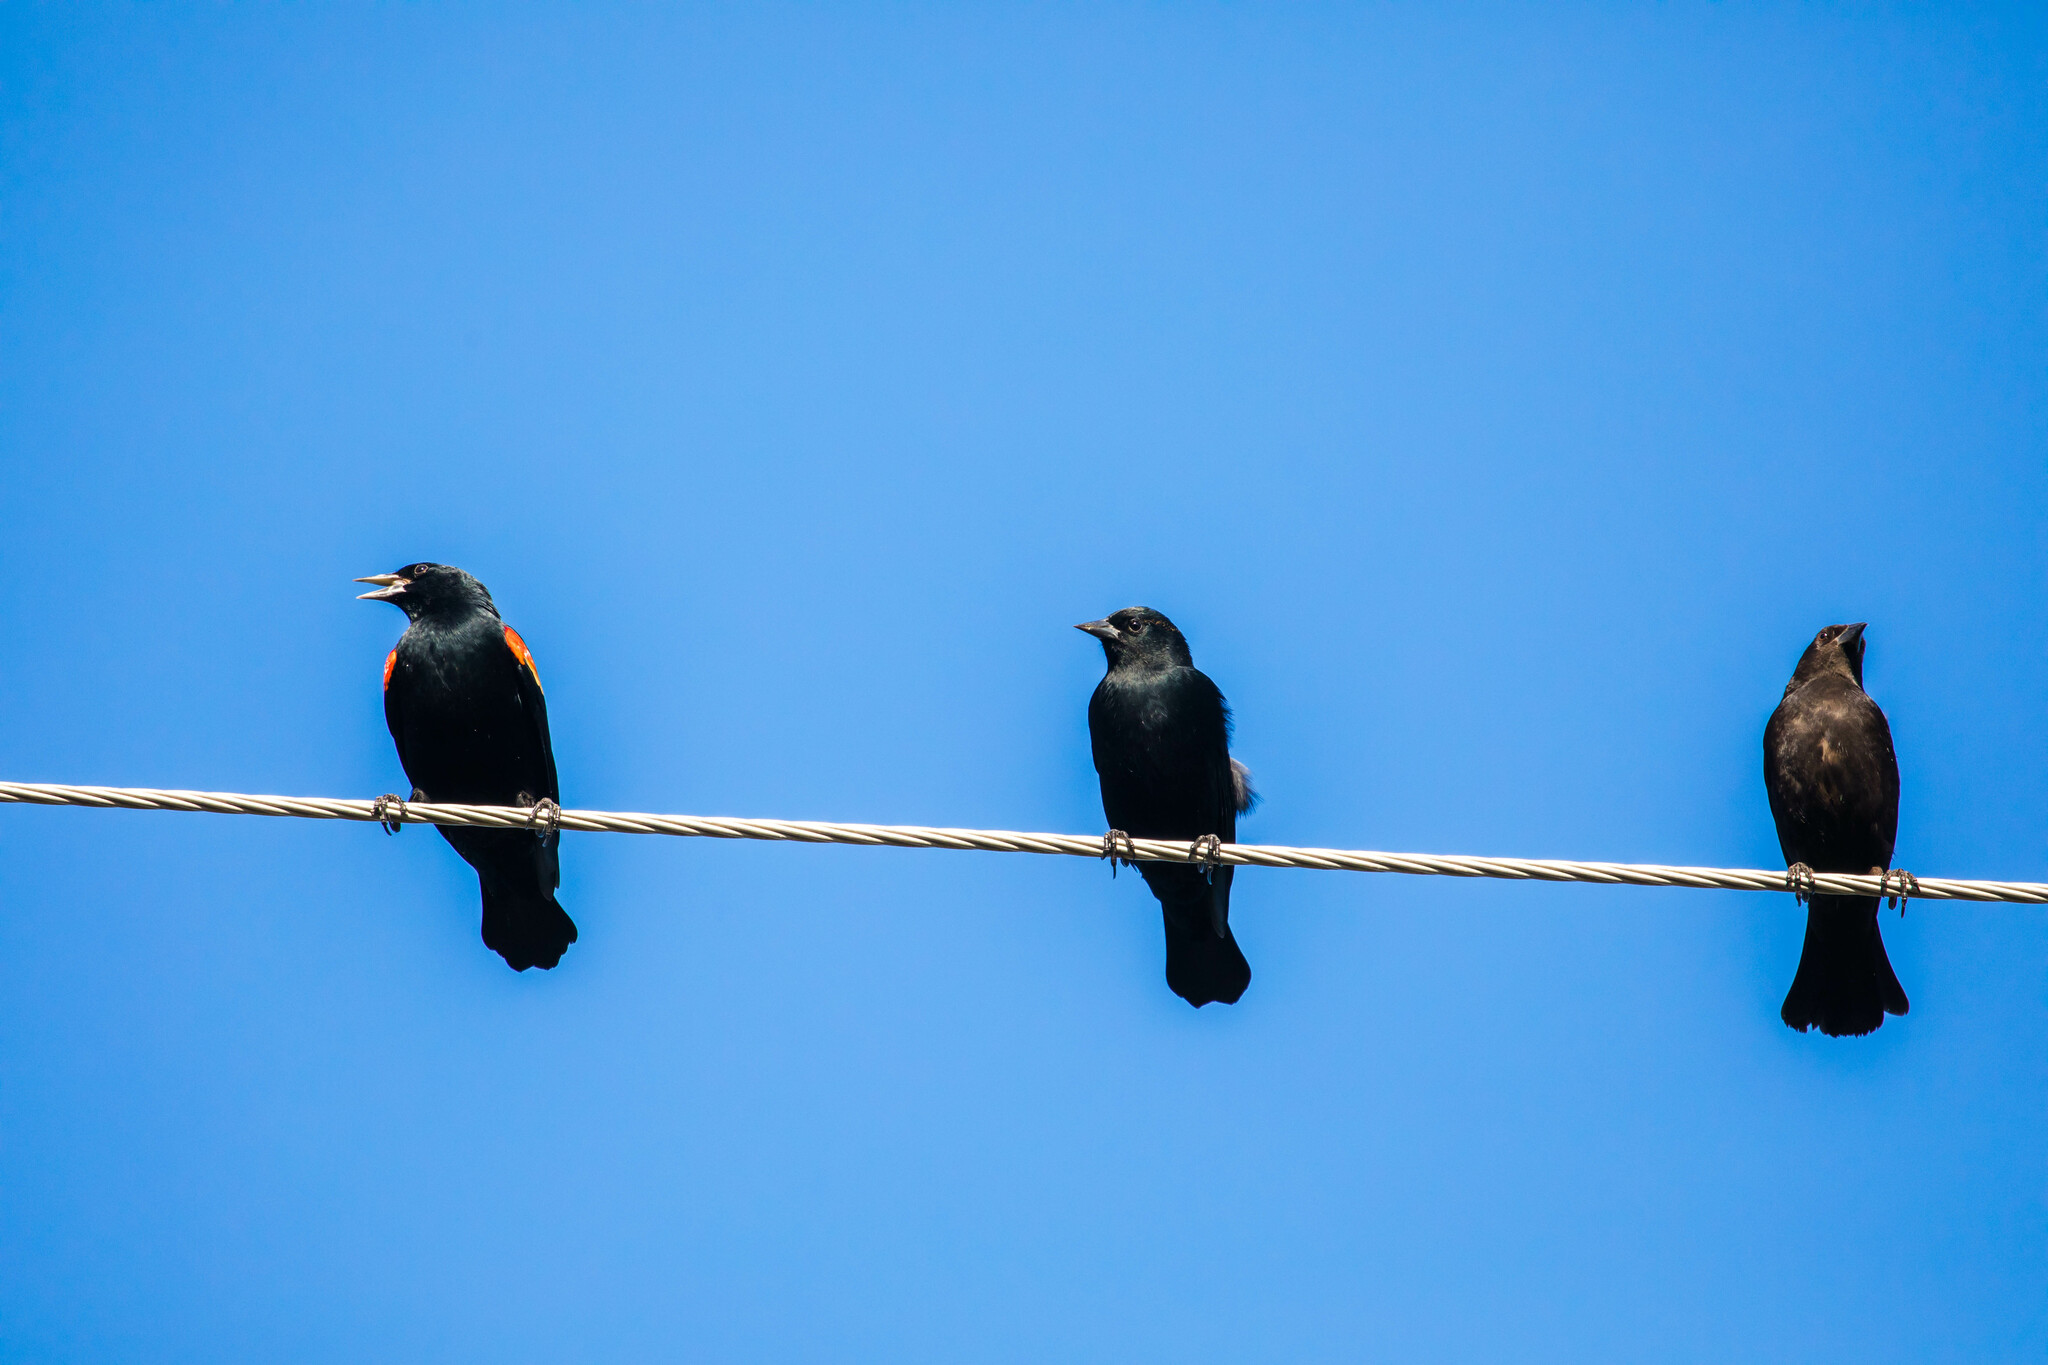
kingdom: Animalia
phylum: Chordata
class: Aves
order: Passeriformes
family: Icteridae
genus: Agelaius
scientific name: Agelaius phoeniceus
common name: Red-winged blackbird
